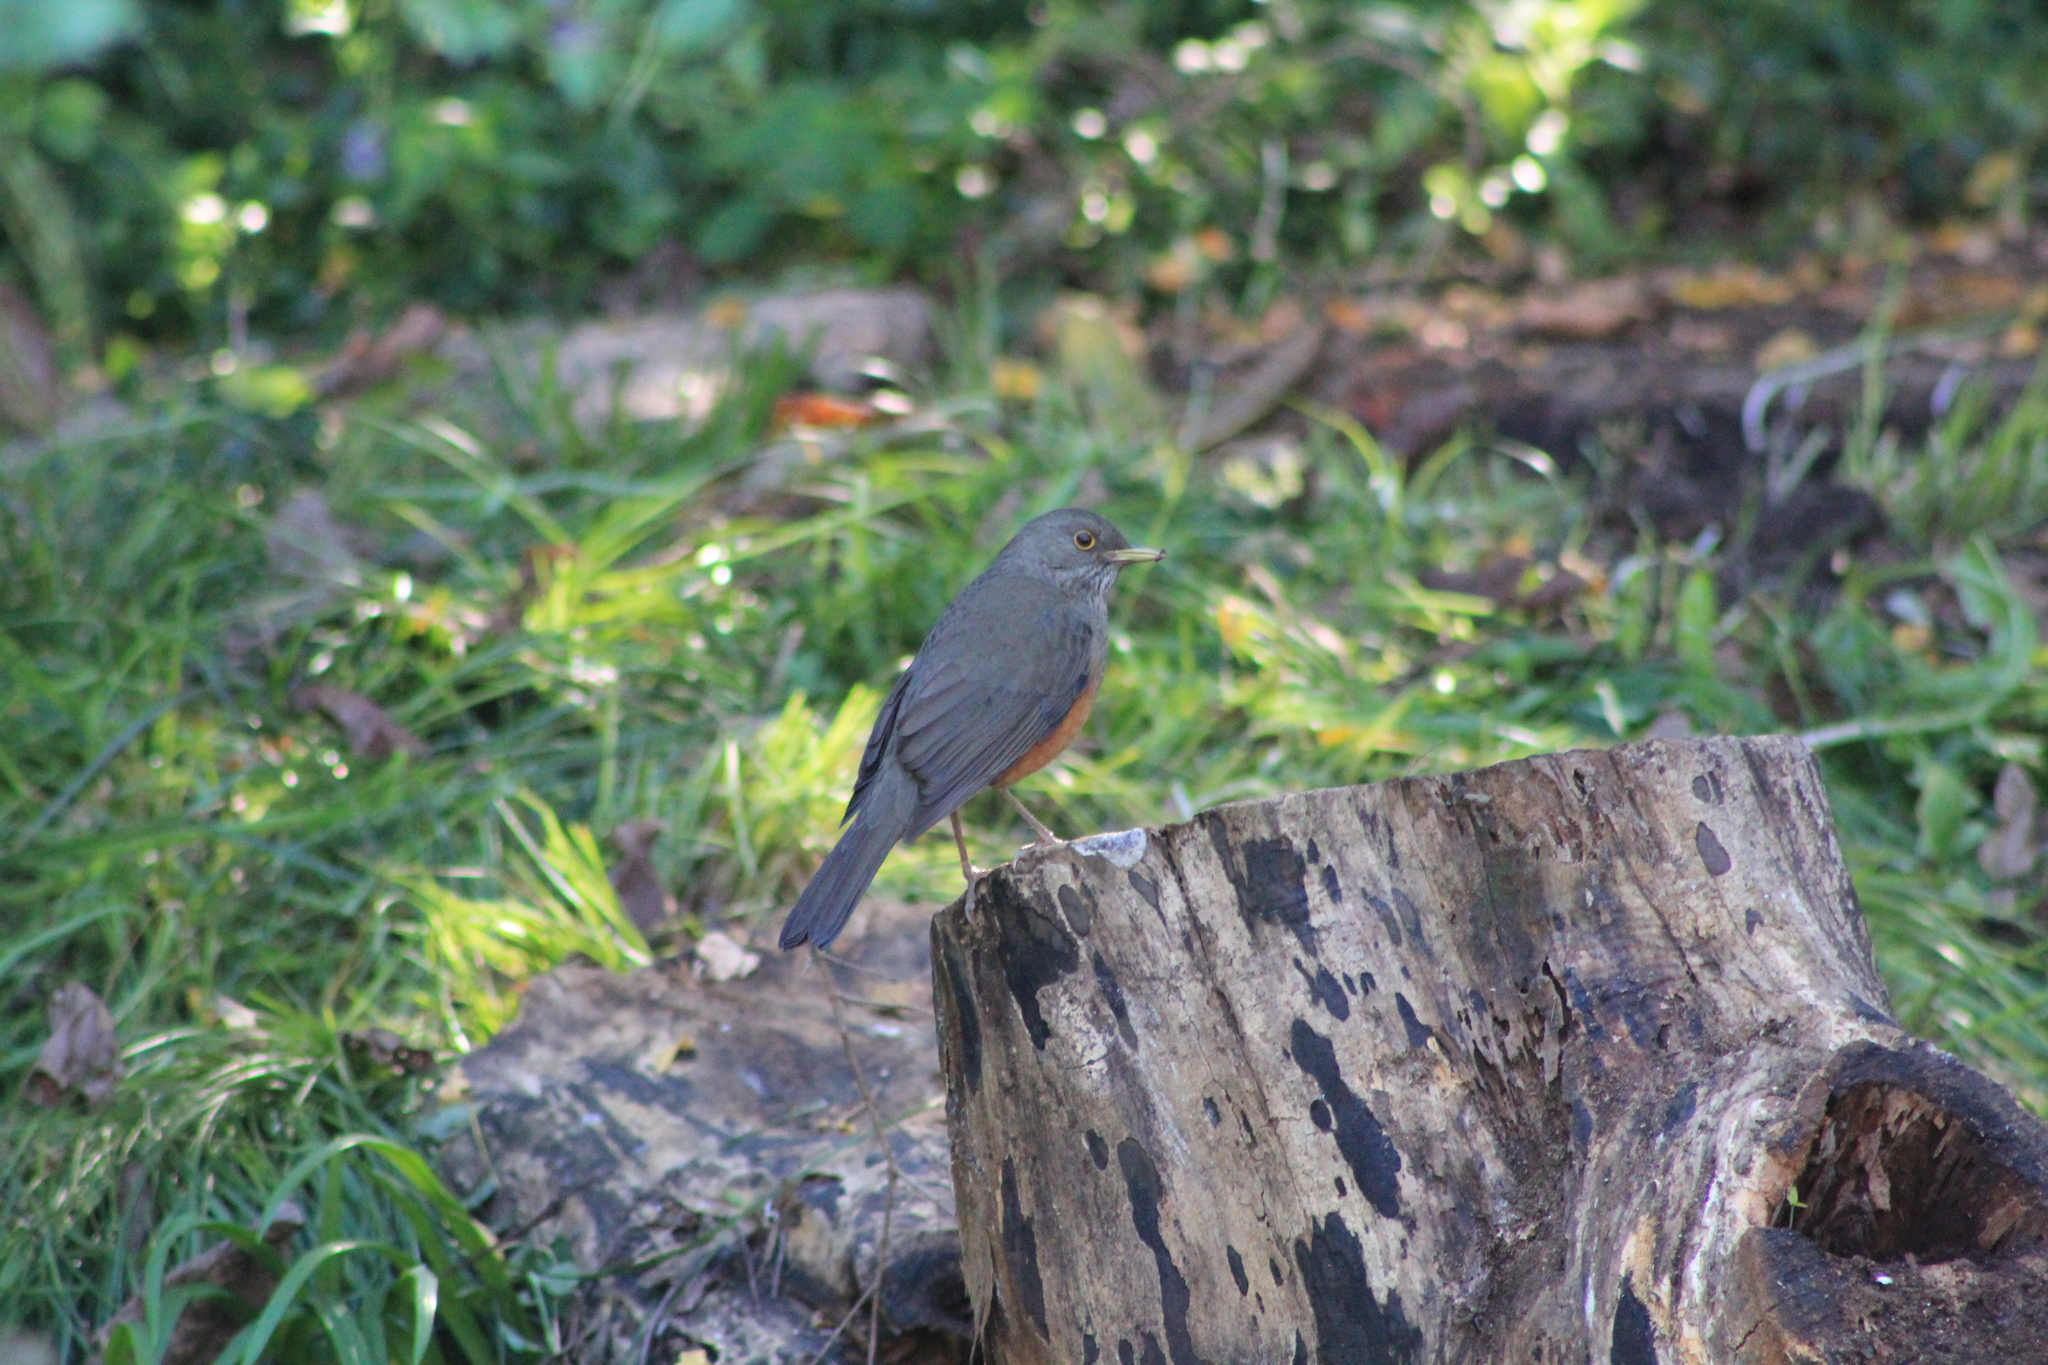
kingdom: Animalia
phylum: Chordata
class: Aves
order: Passeriformes
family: Turdidae
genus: Turdus
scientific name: Turdus rufiventris
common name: Rufous-bellied thrush
